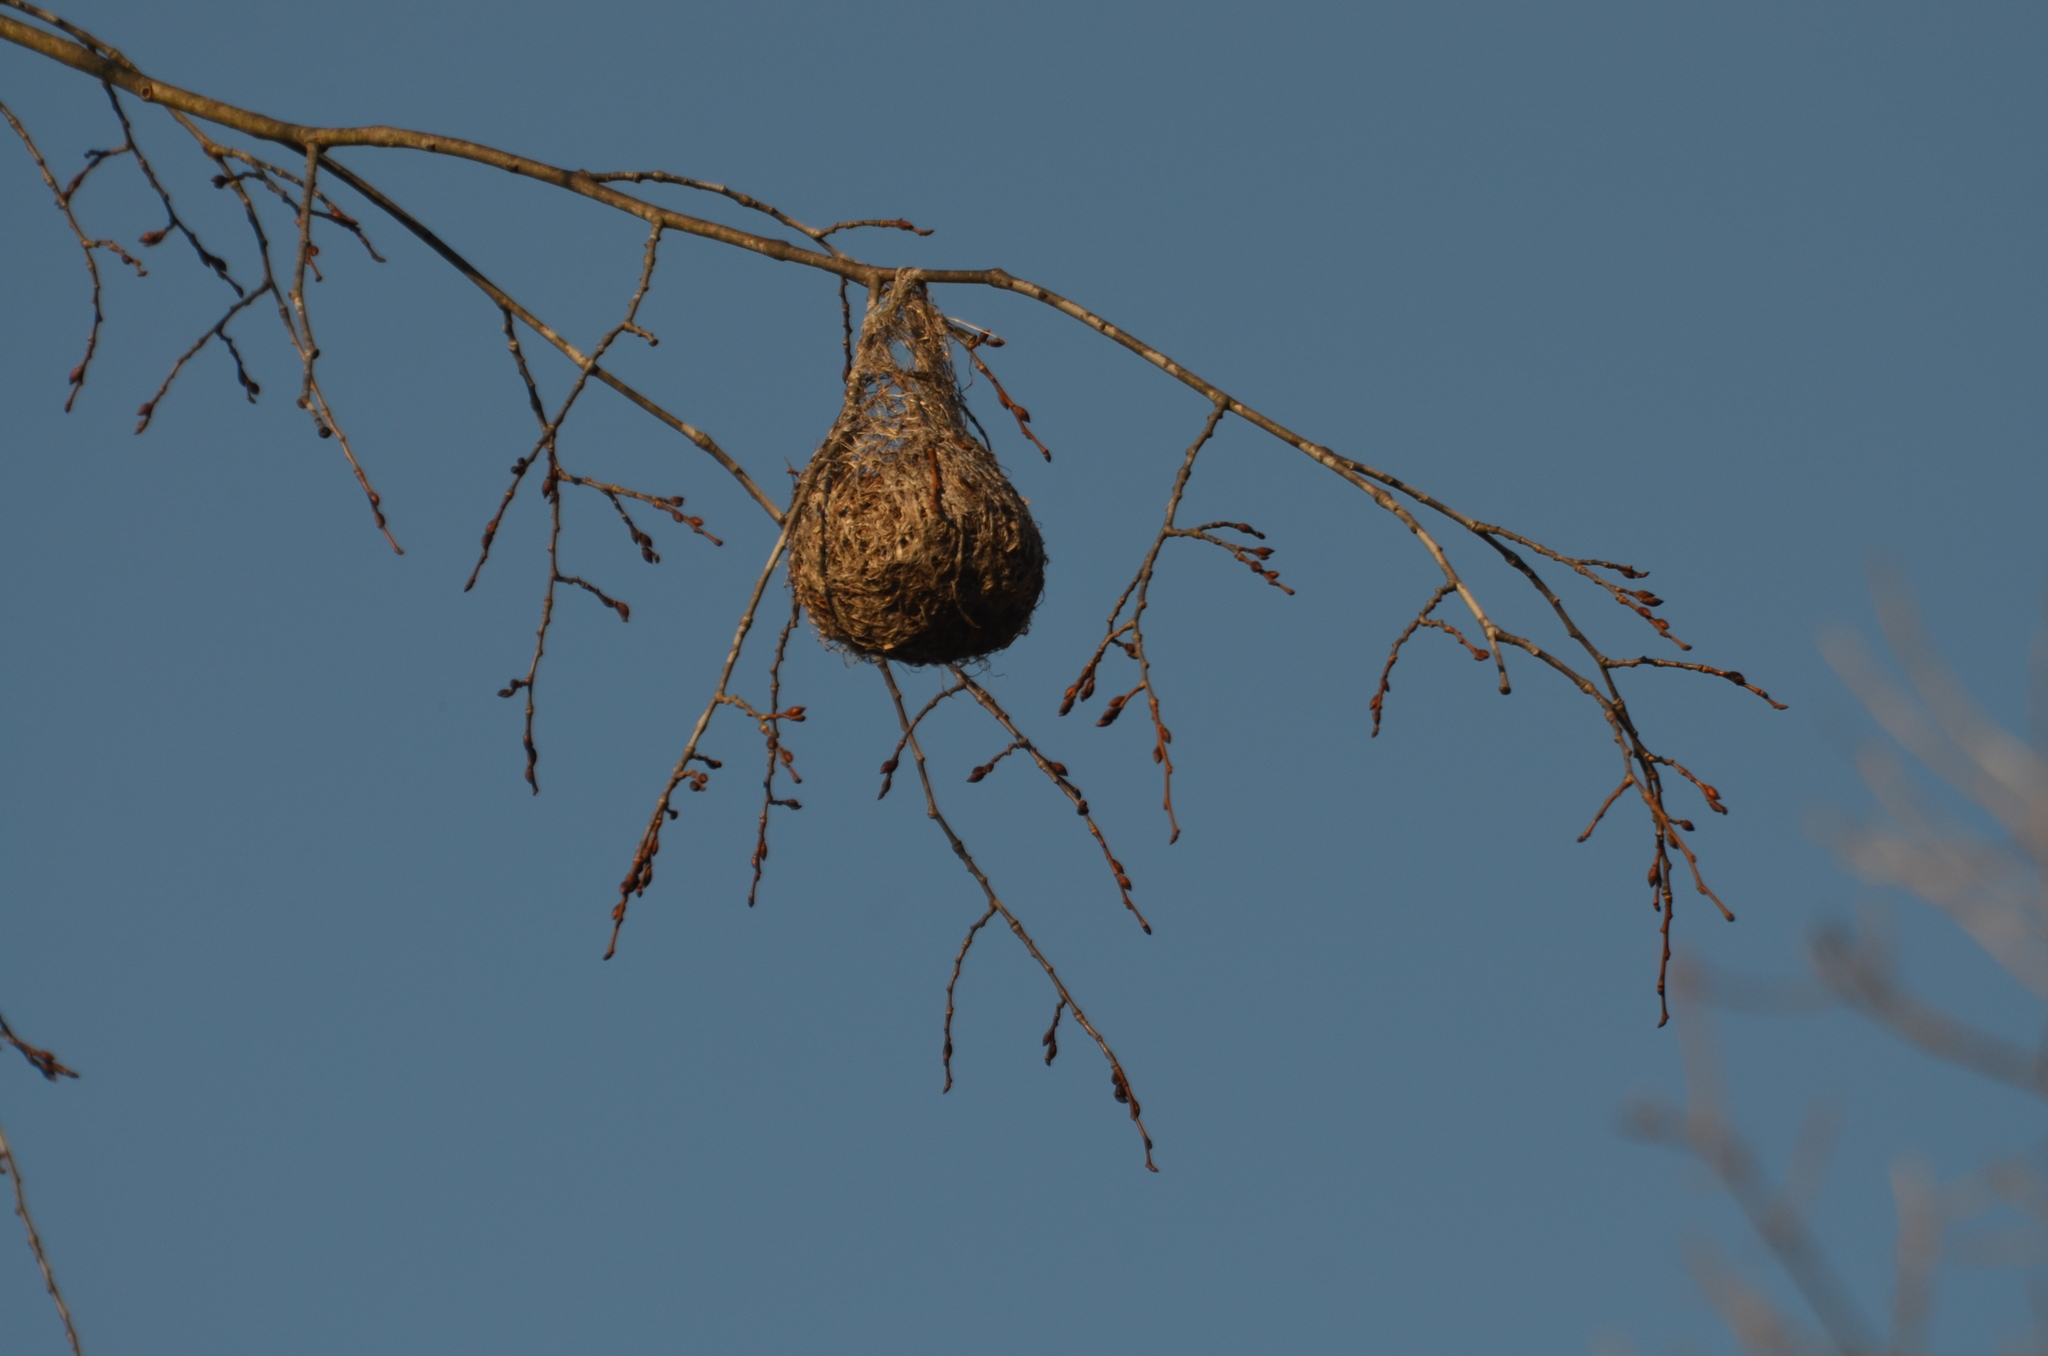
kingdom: Animalia
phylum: Chordata
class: Aves
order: Passeriformes
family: Icteridae
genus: Icterus
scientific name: Icterus galbula
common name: Baltimore oriole
